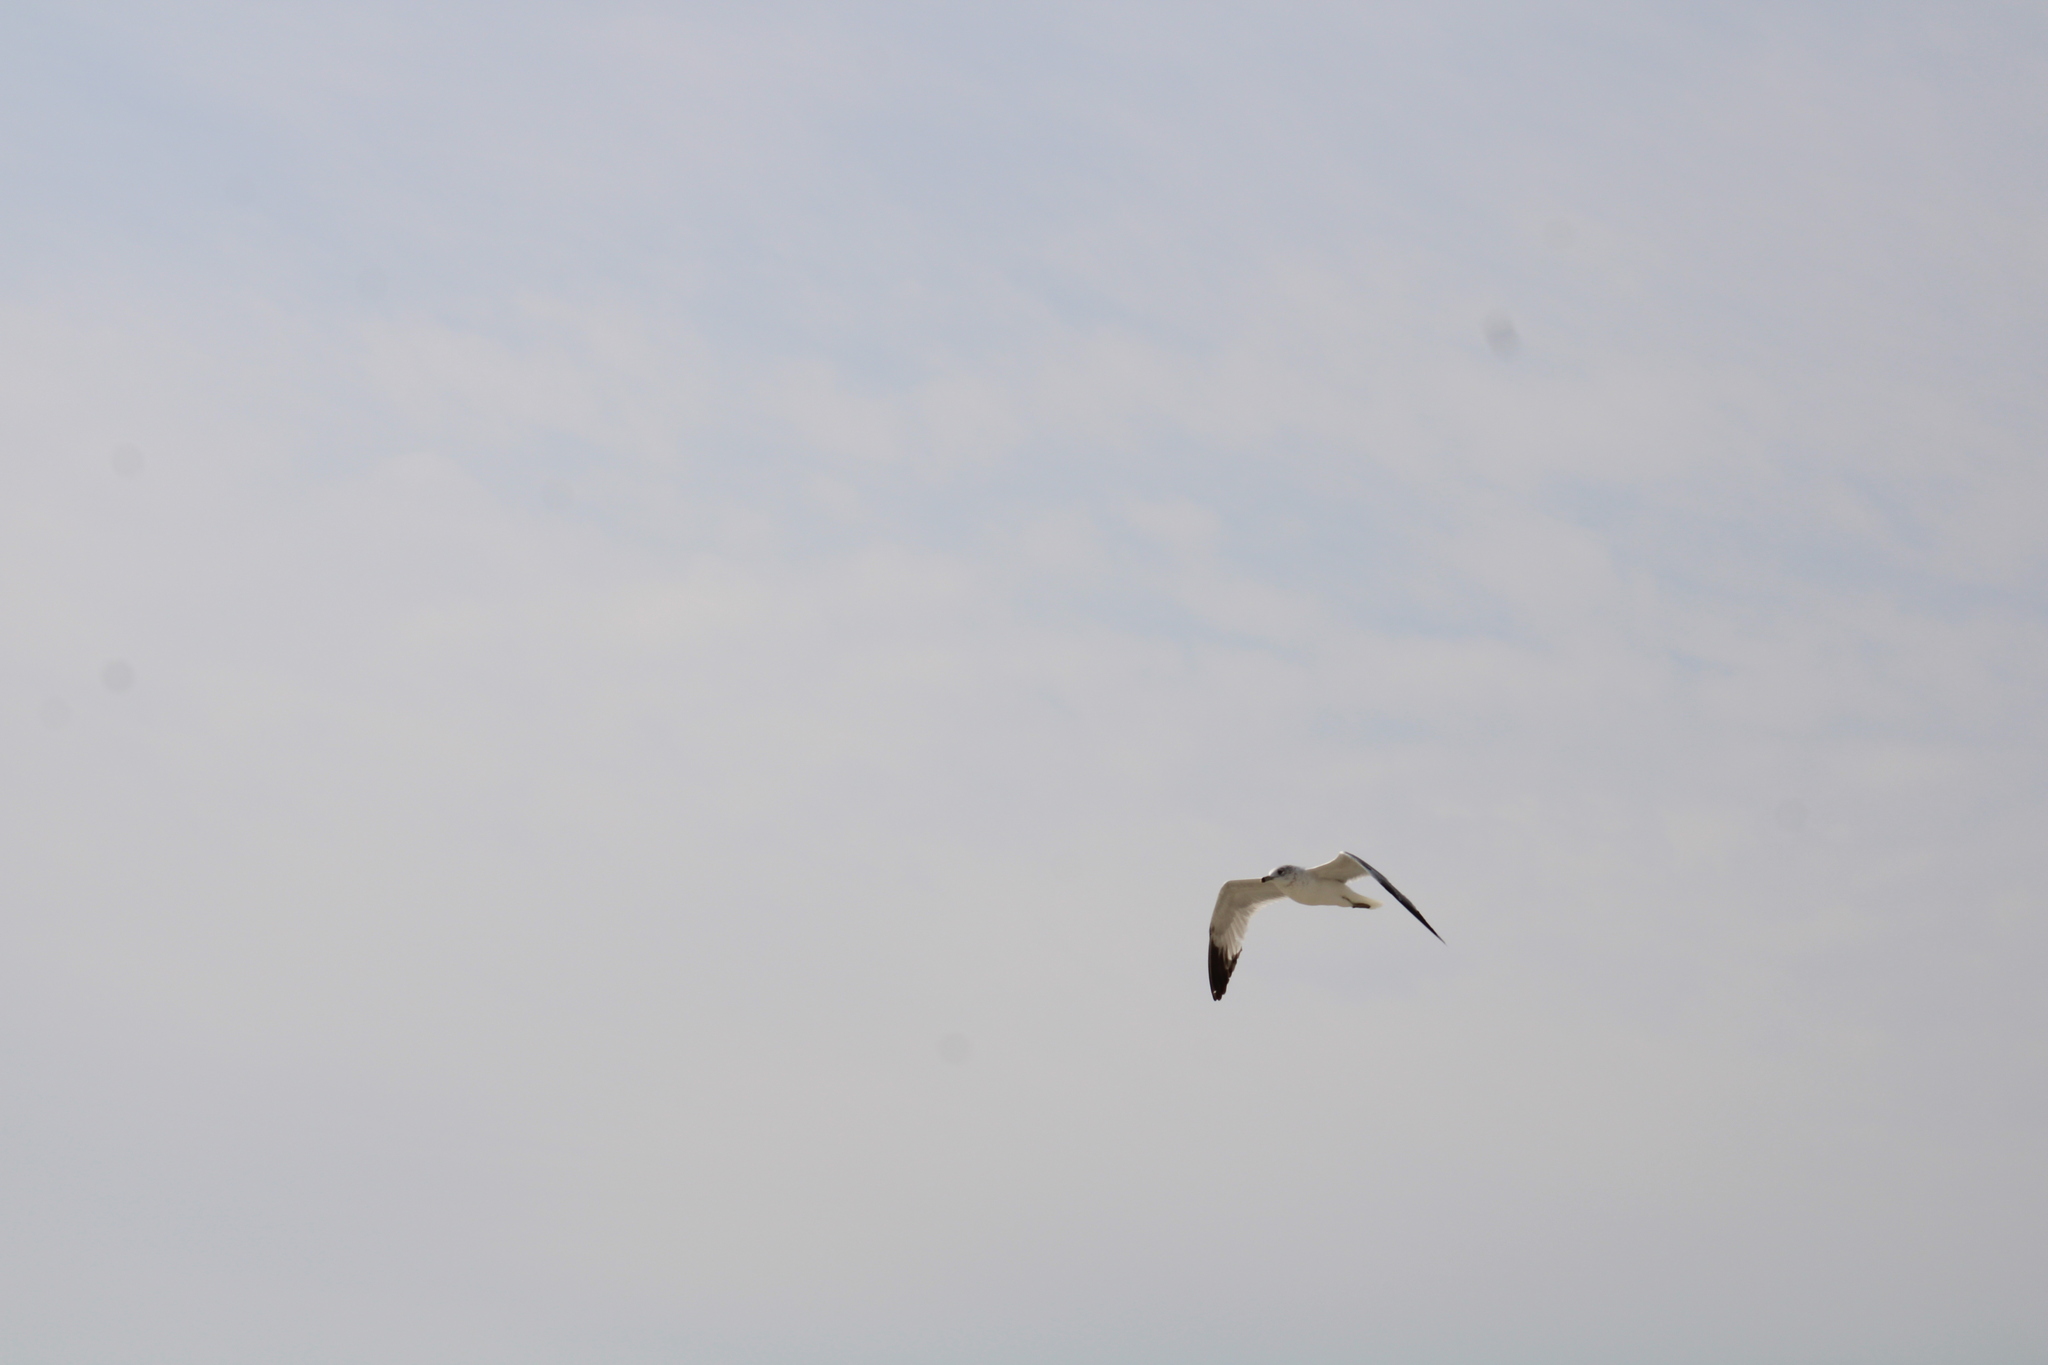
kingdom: Animalia
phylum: Chordata
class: Aves
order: Charadriiformes
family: Laridae
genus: Larus
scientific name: Larus delawarensis
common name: Ring-billed gull
